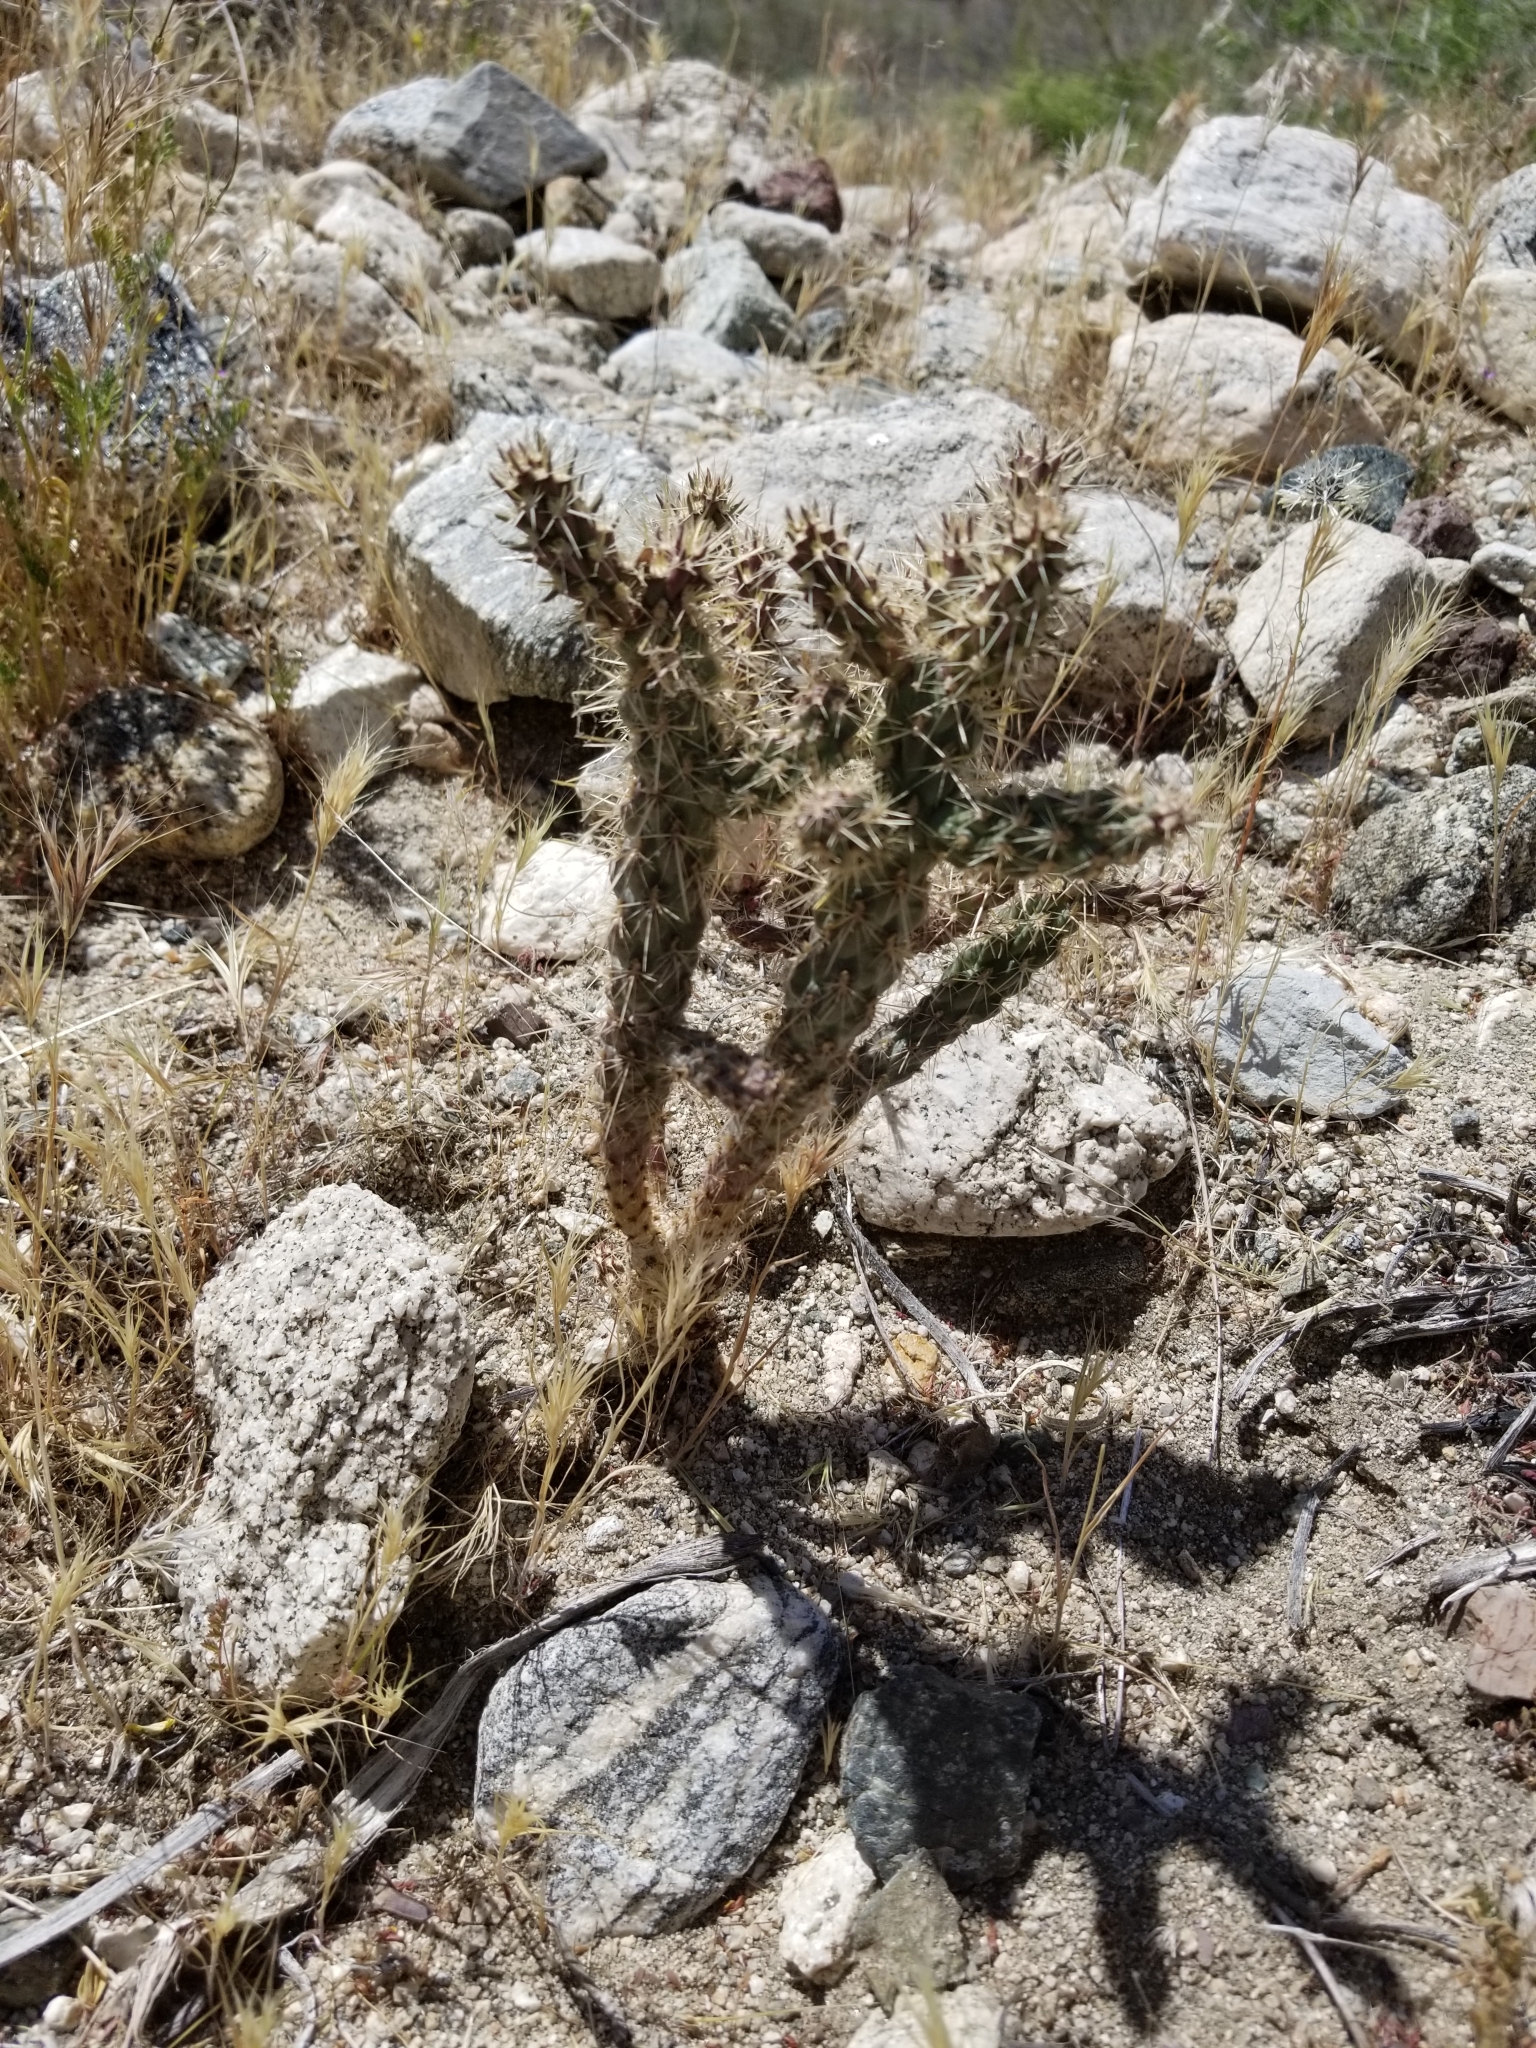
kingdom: Plantae
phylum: Tracheophyta
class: Magnoliopsida
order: Caryophyllales
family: Cactaceae
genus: Cylindropuntia
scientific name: Cylindropuntia echinocarpa
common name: Ground cholla
